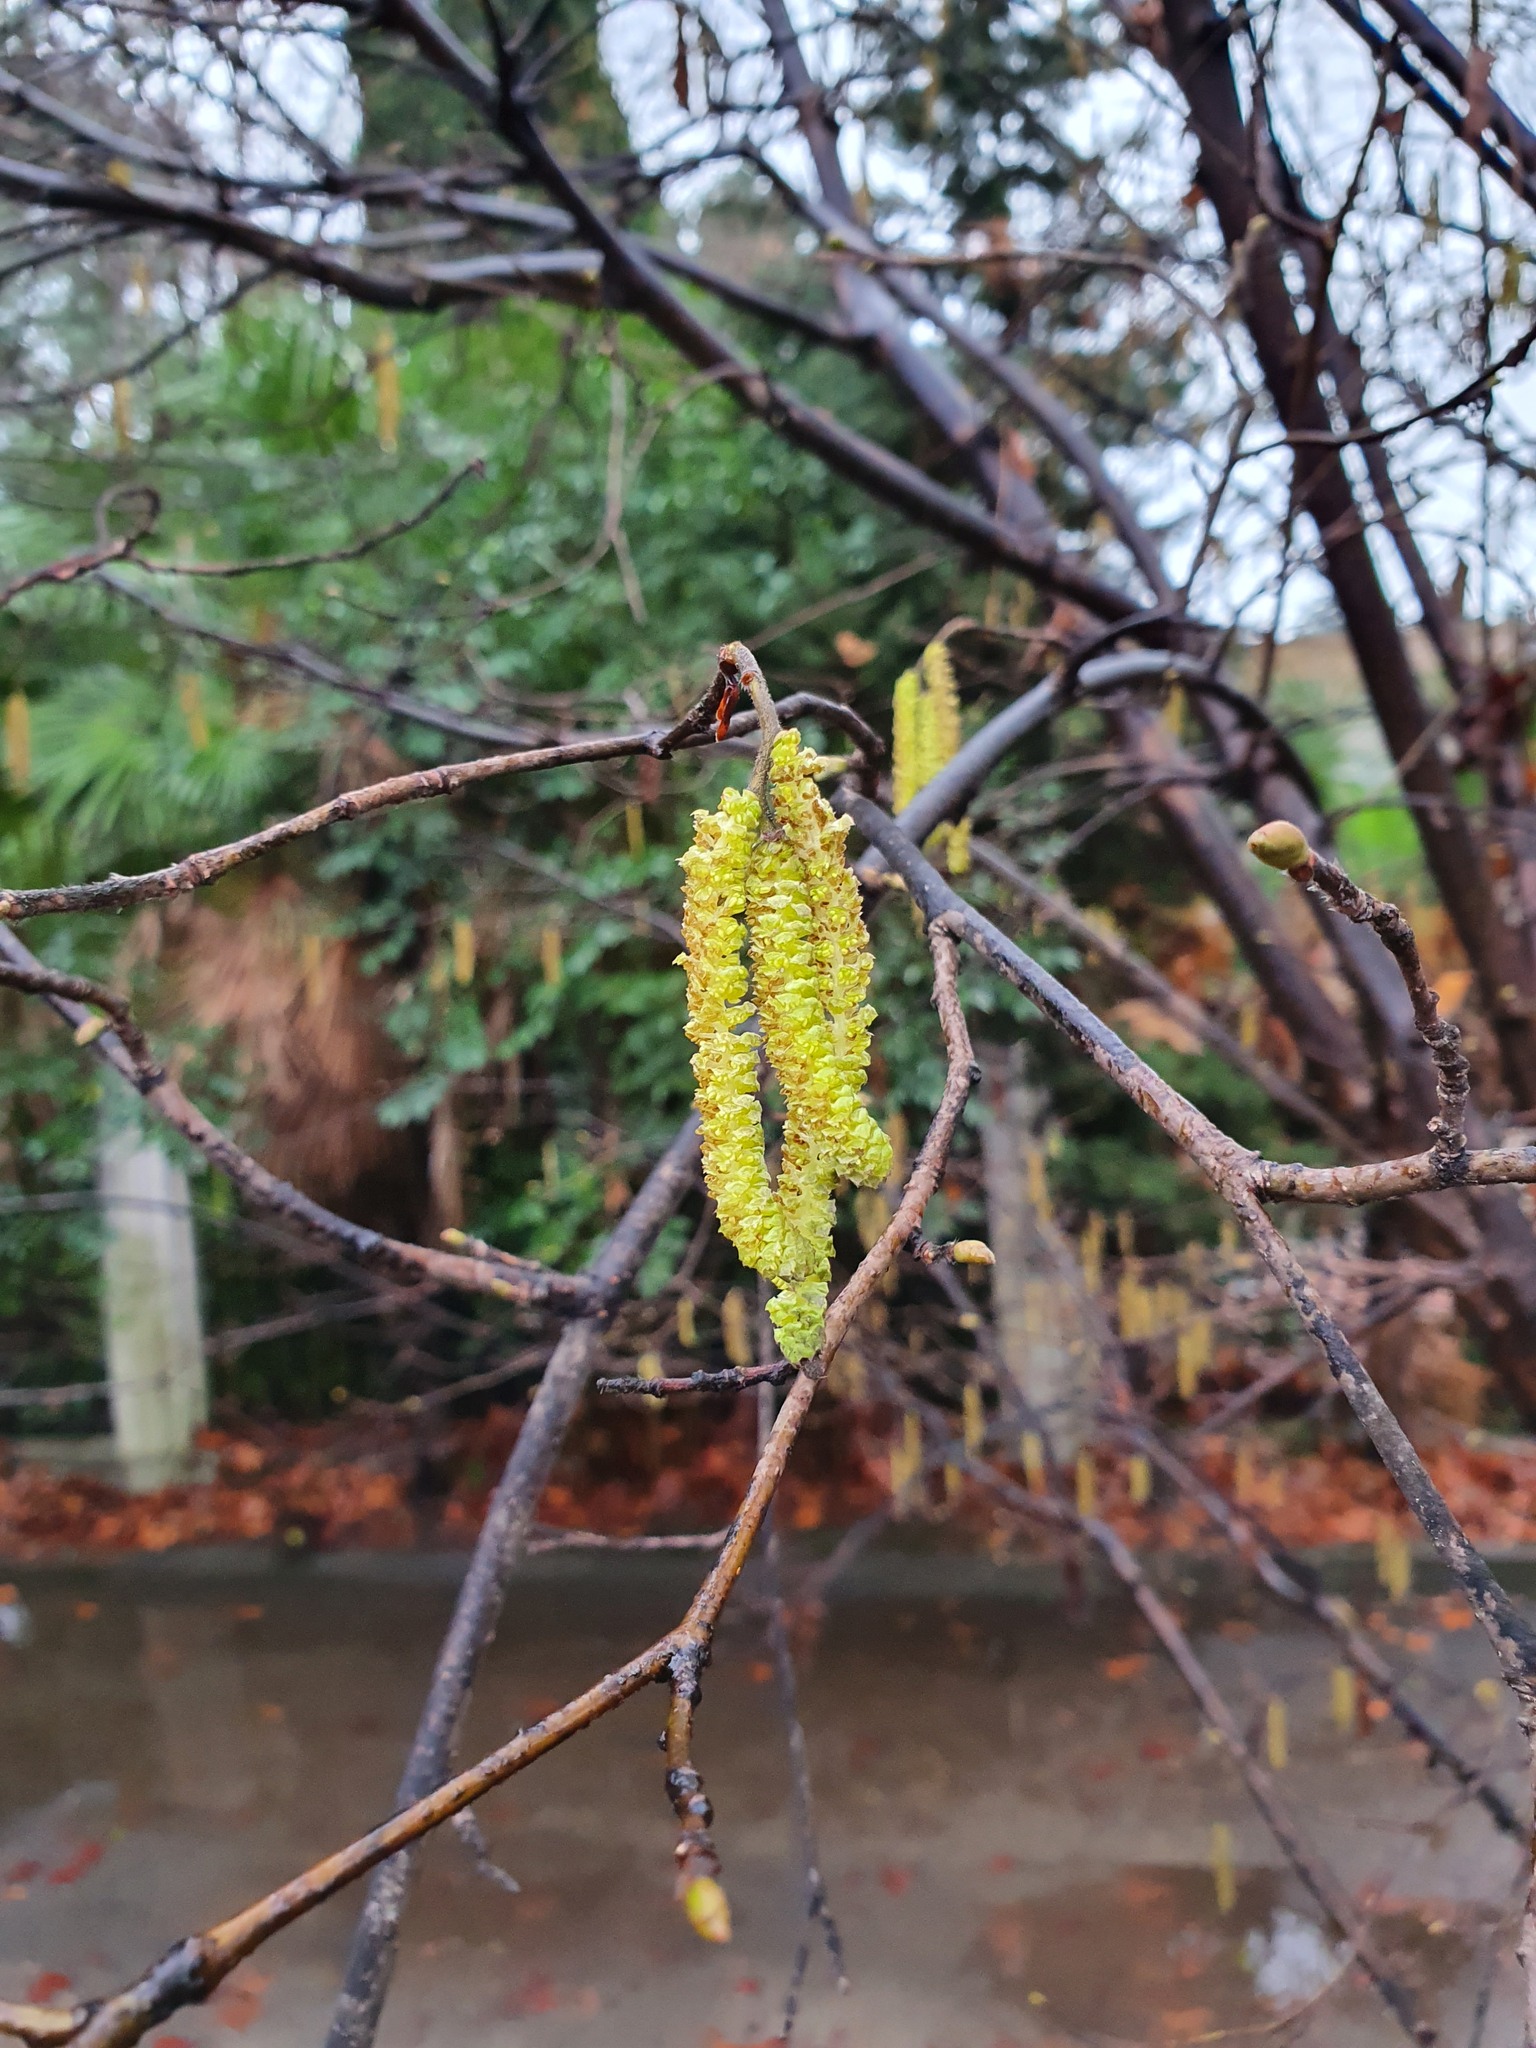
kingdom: Plantae
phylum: Tracheophyta
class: Magnoliopsida
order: Fagales
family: Betulaceae
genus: Corylus
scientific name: Corylus avellana
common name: European hazel
